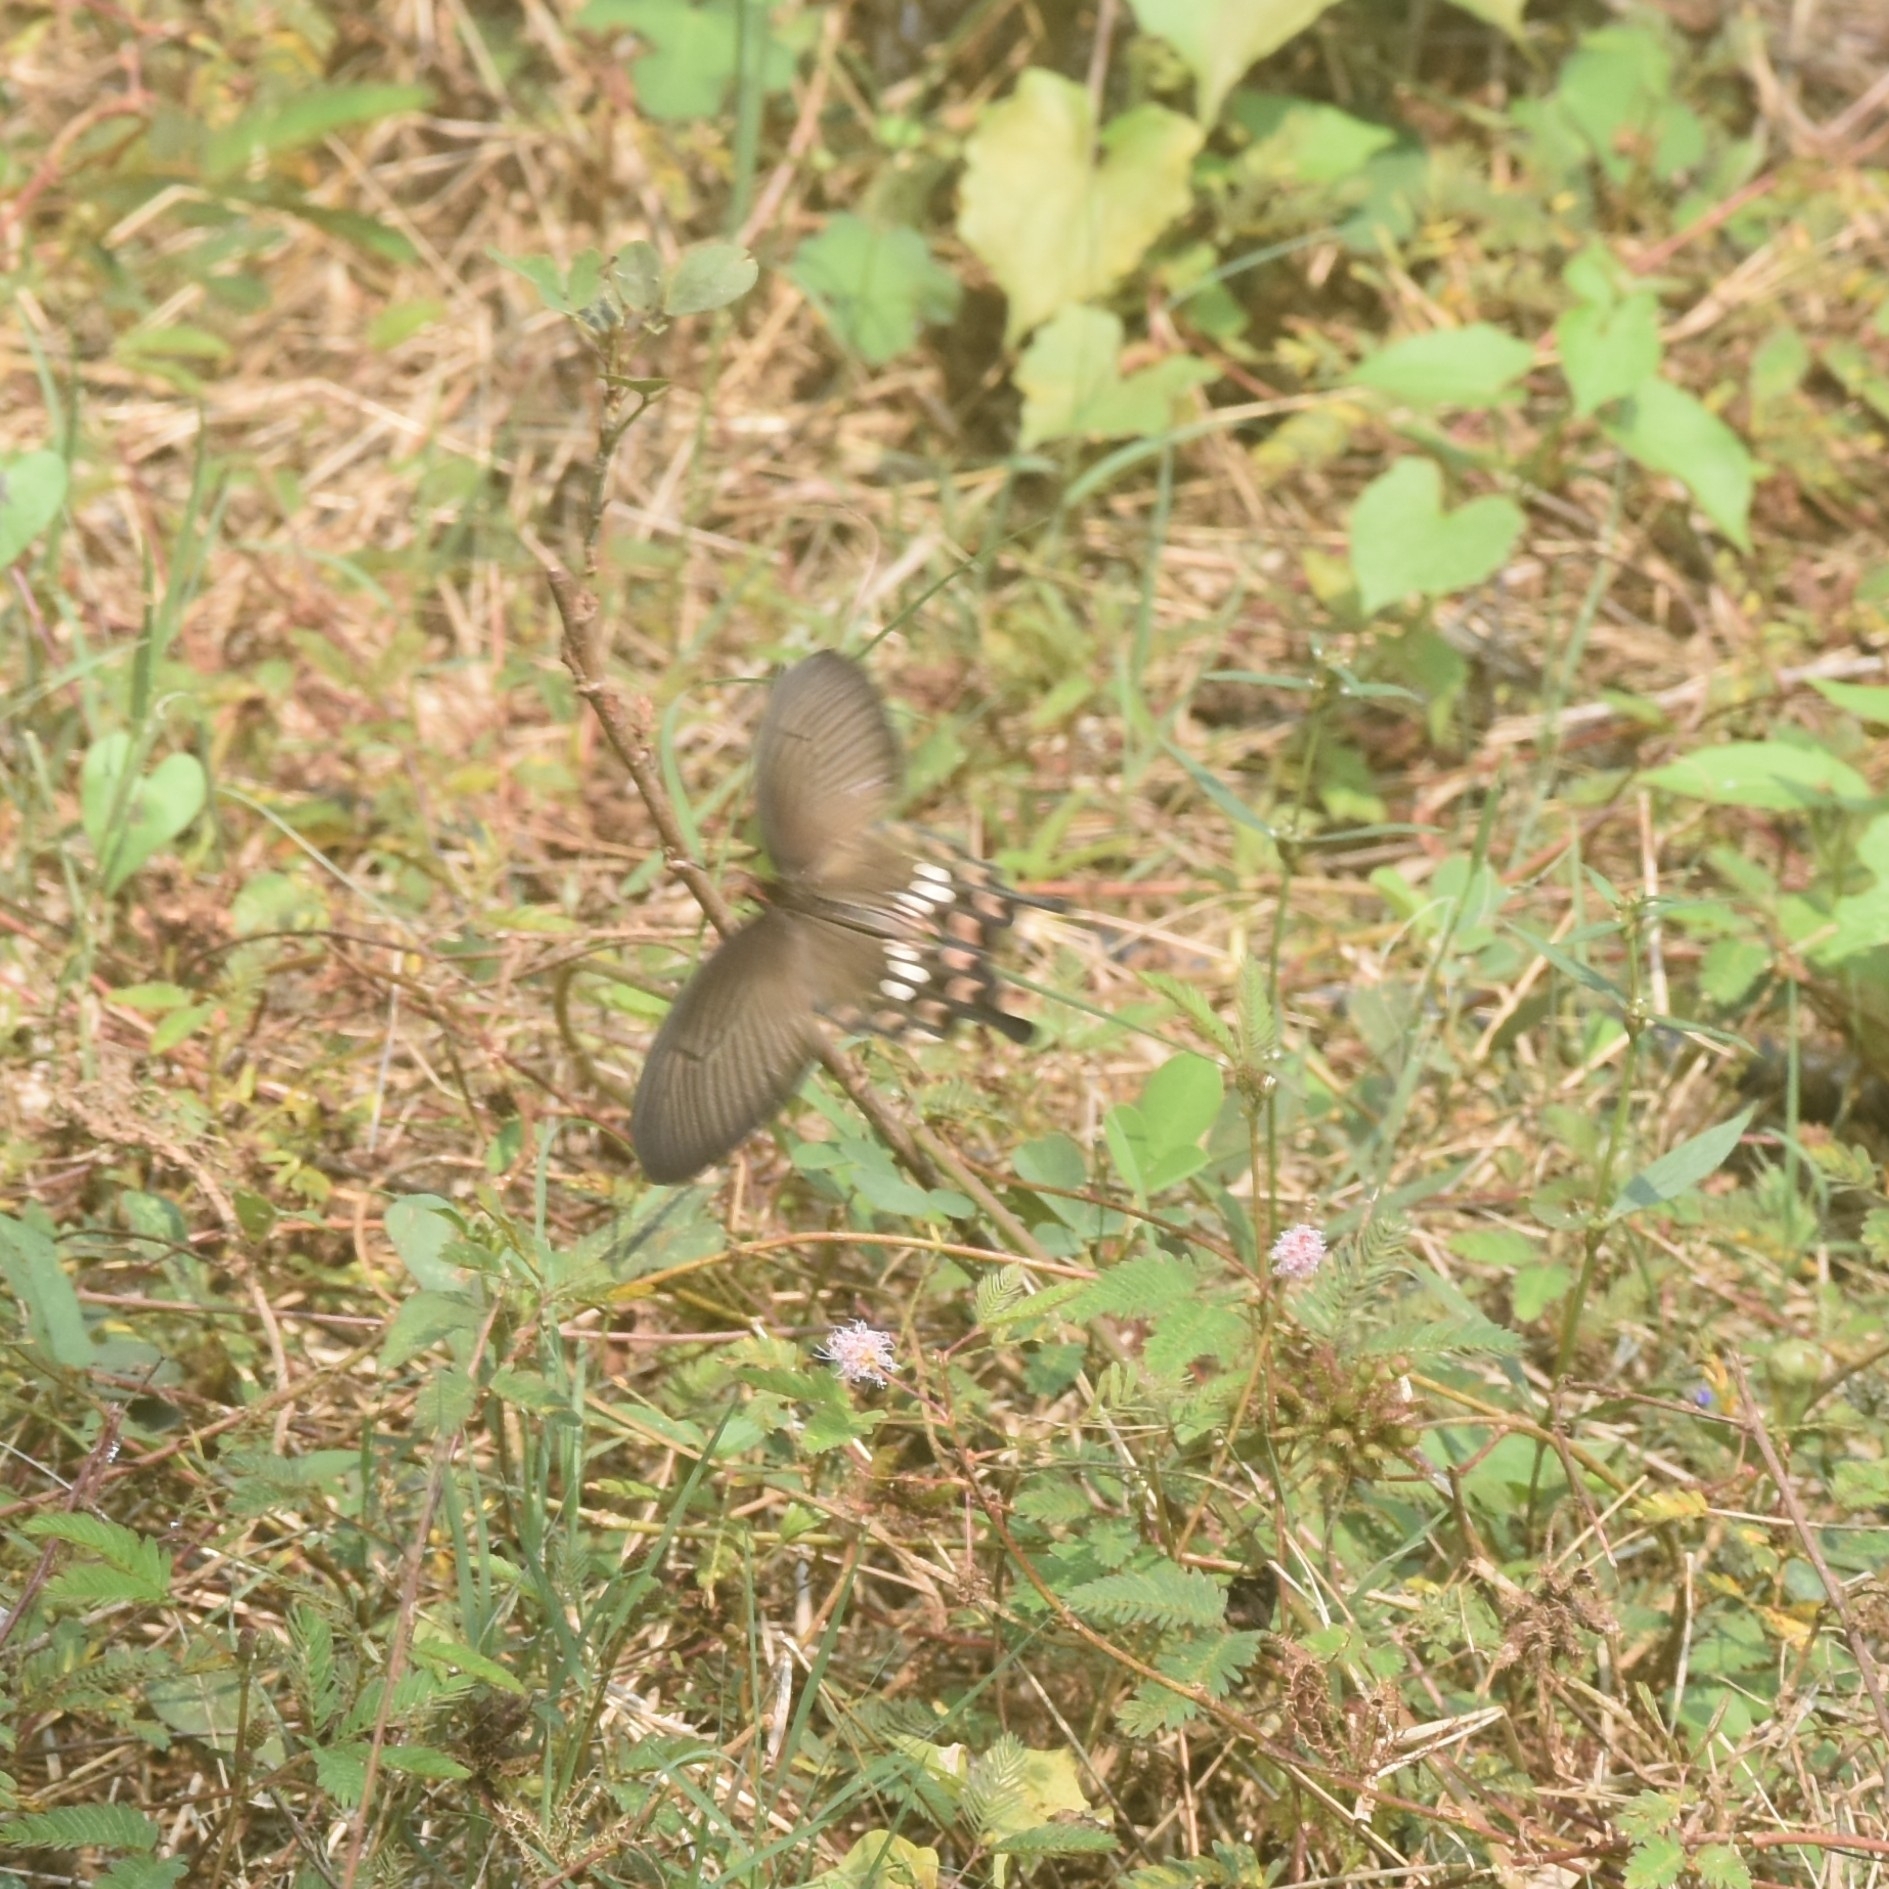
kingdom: Animalia
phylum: Arthropoda
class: Insecta
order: Lepidoptera
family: Papilionidae
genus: Pachliopta
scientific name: Pachliopta aristolochiae
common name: Common rose
